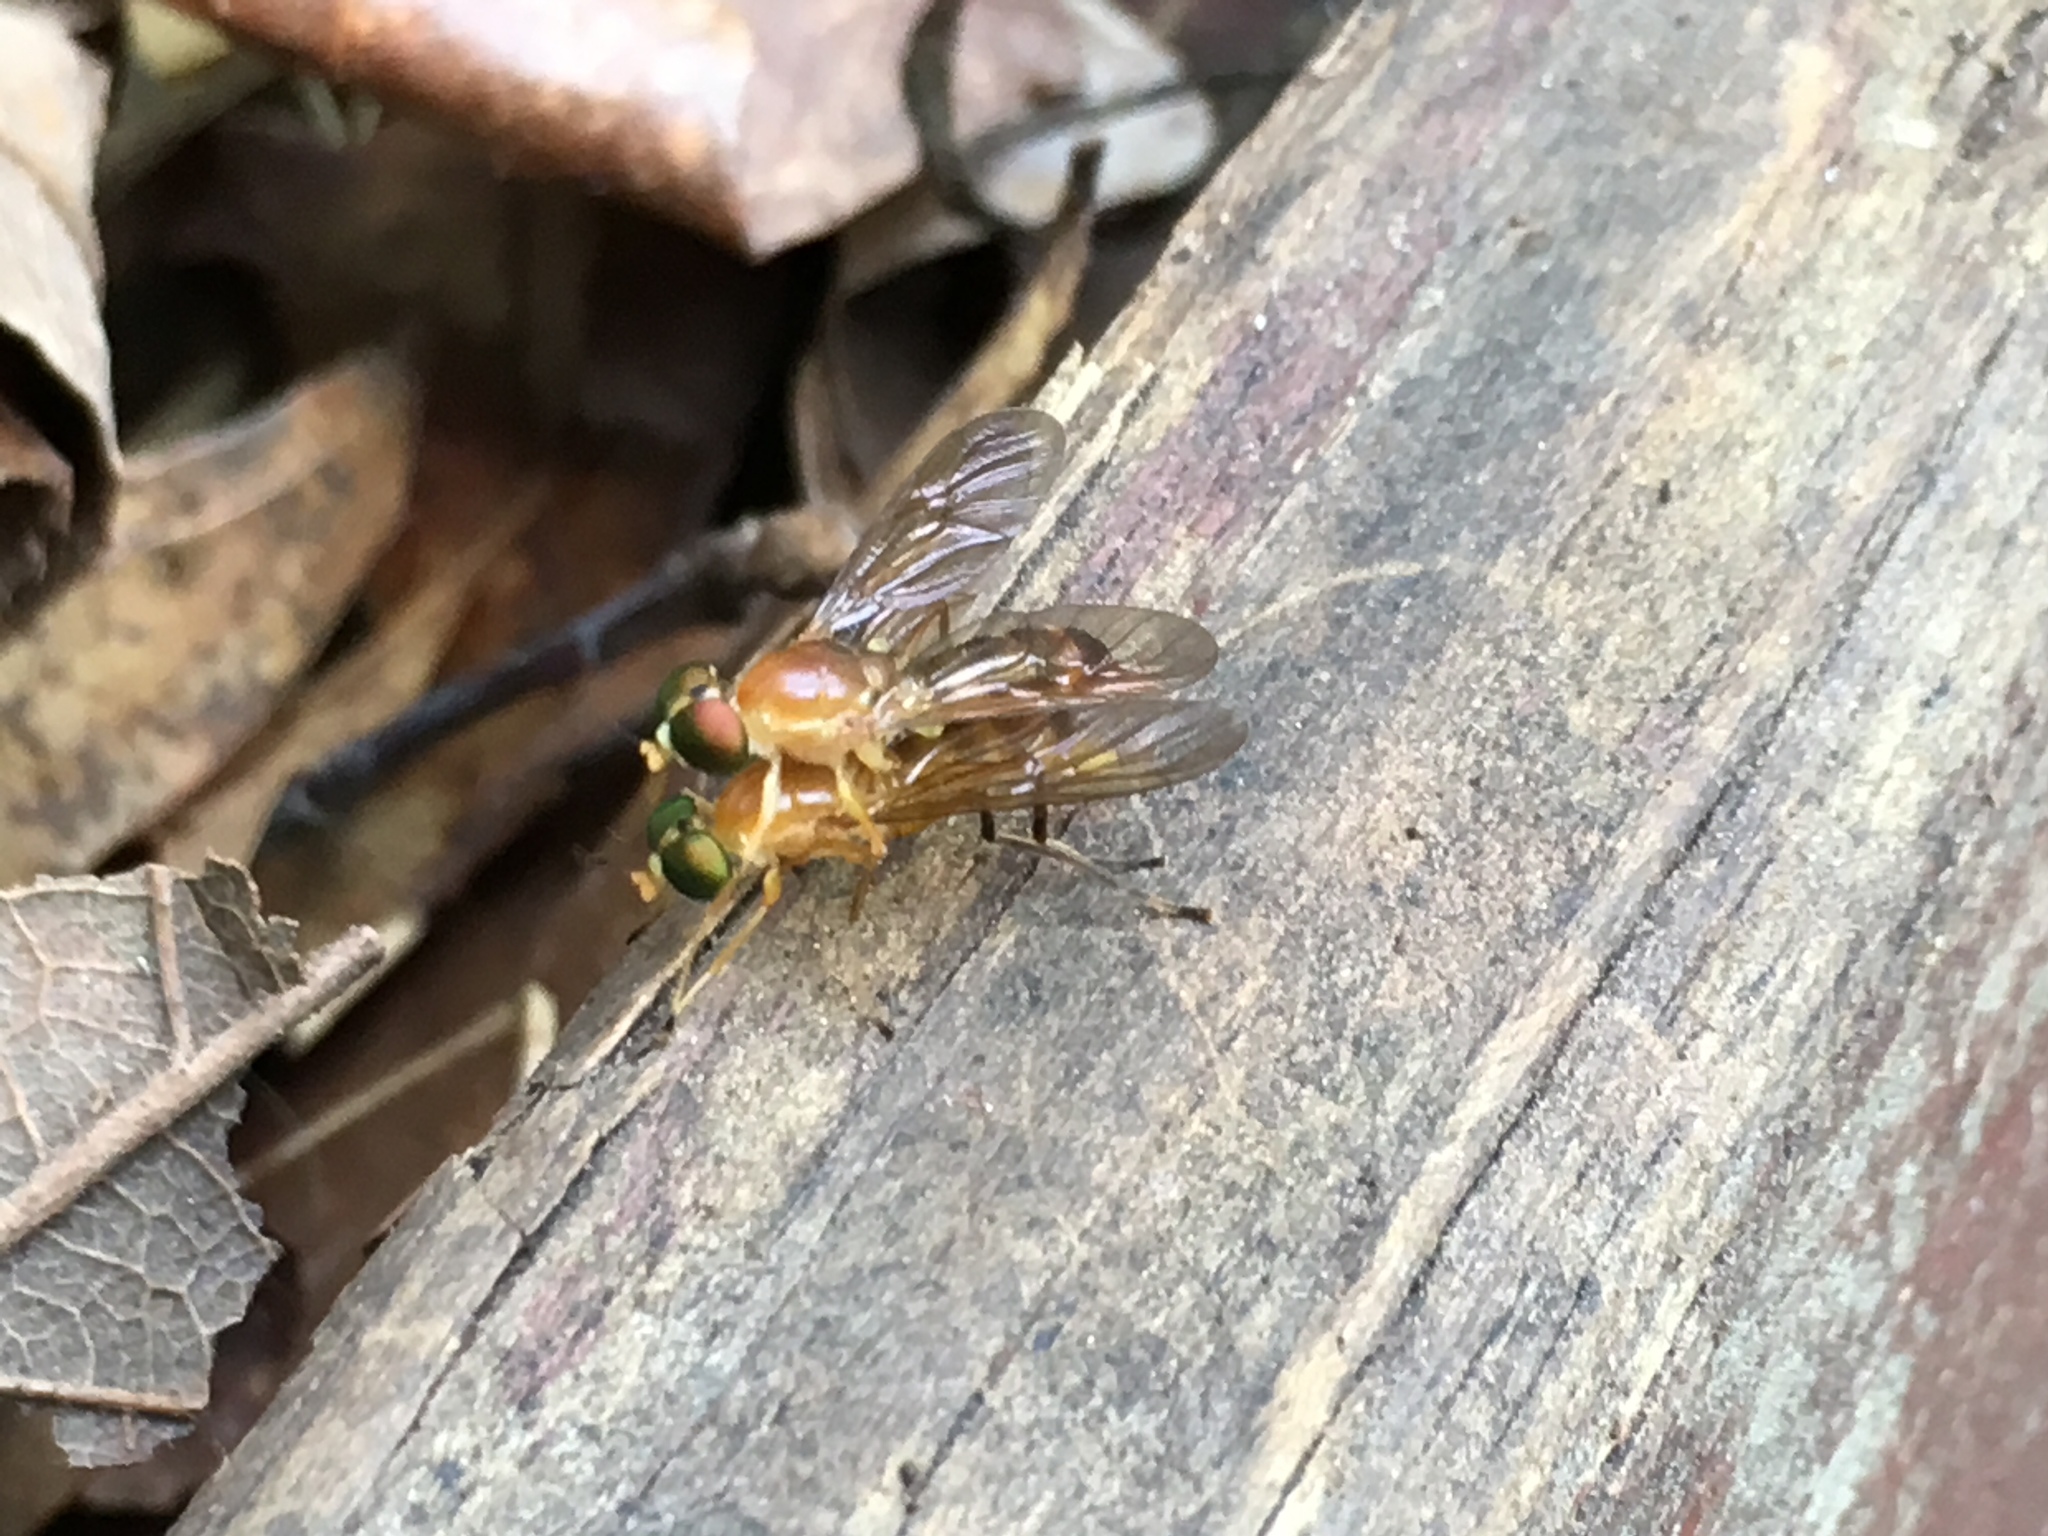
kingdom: Animalia
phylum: Arthropoda
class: Insecta
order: Diptera
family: Stratiomyidae
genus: Ptecticus
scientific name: Ptecticus trivittatus
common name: Compost fly
